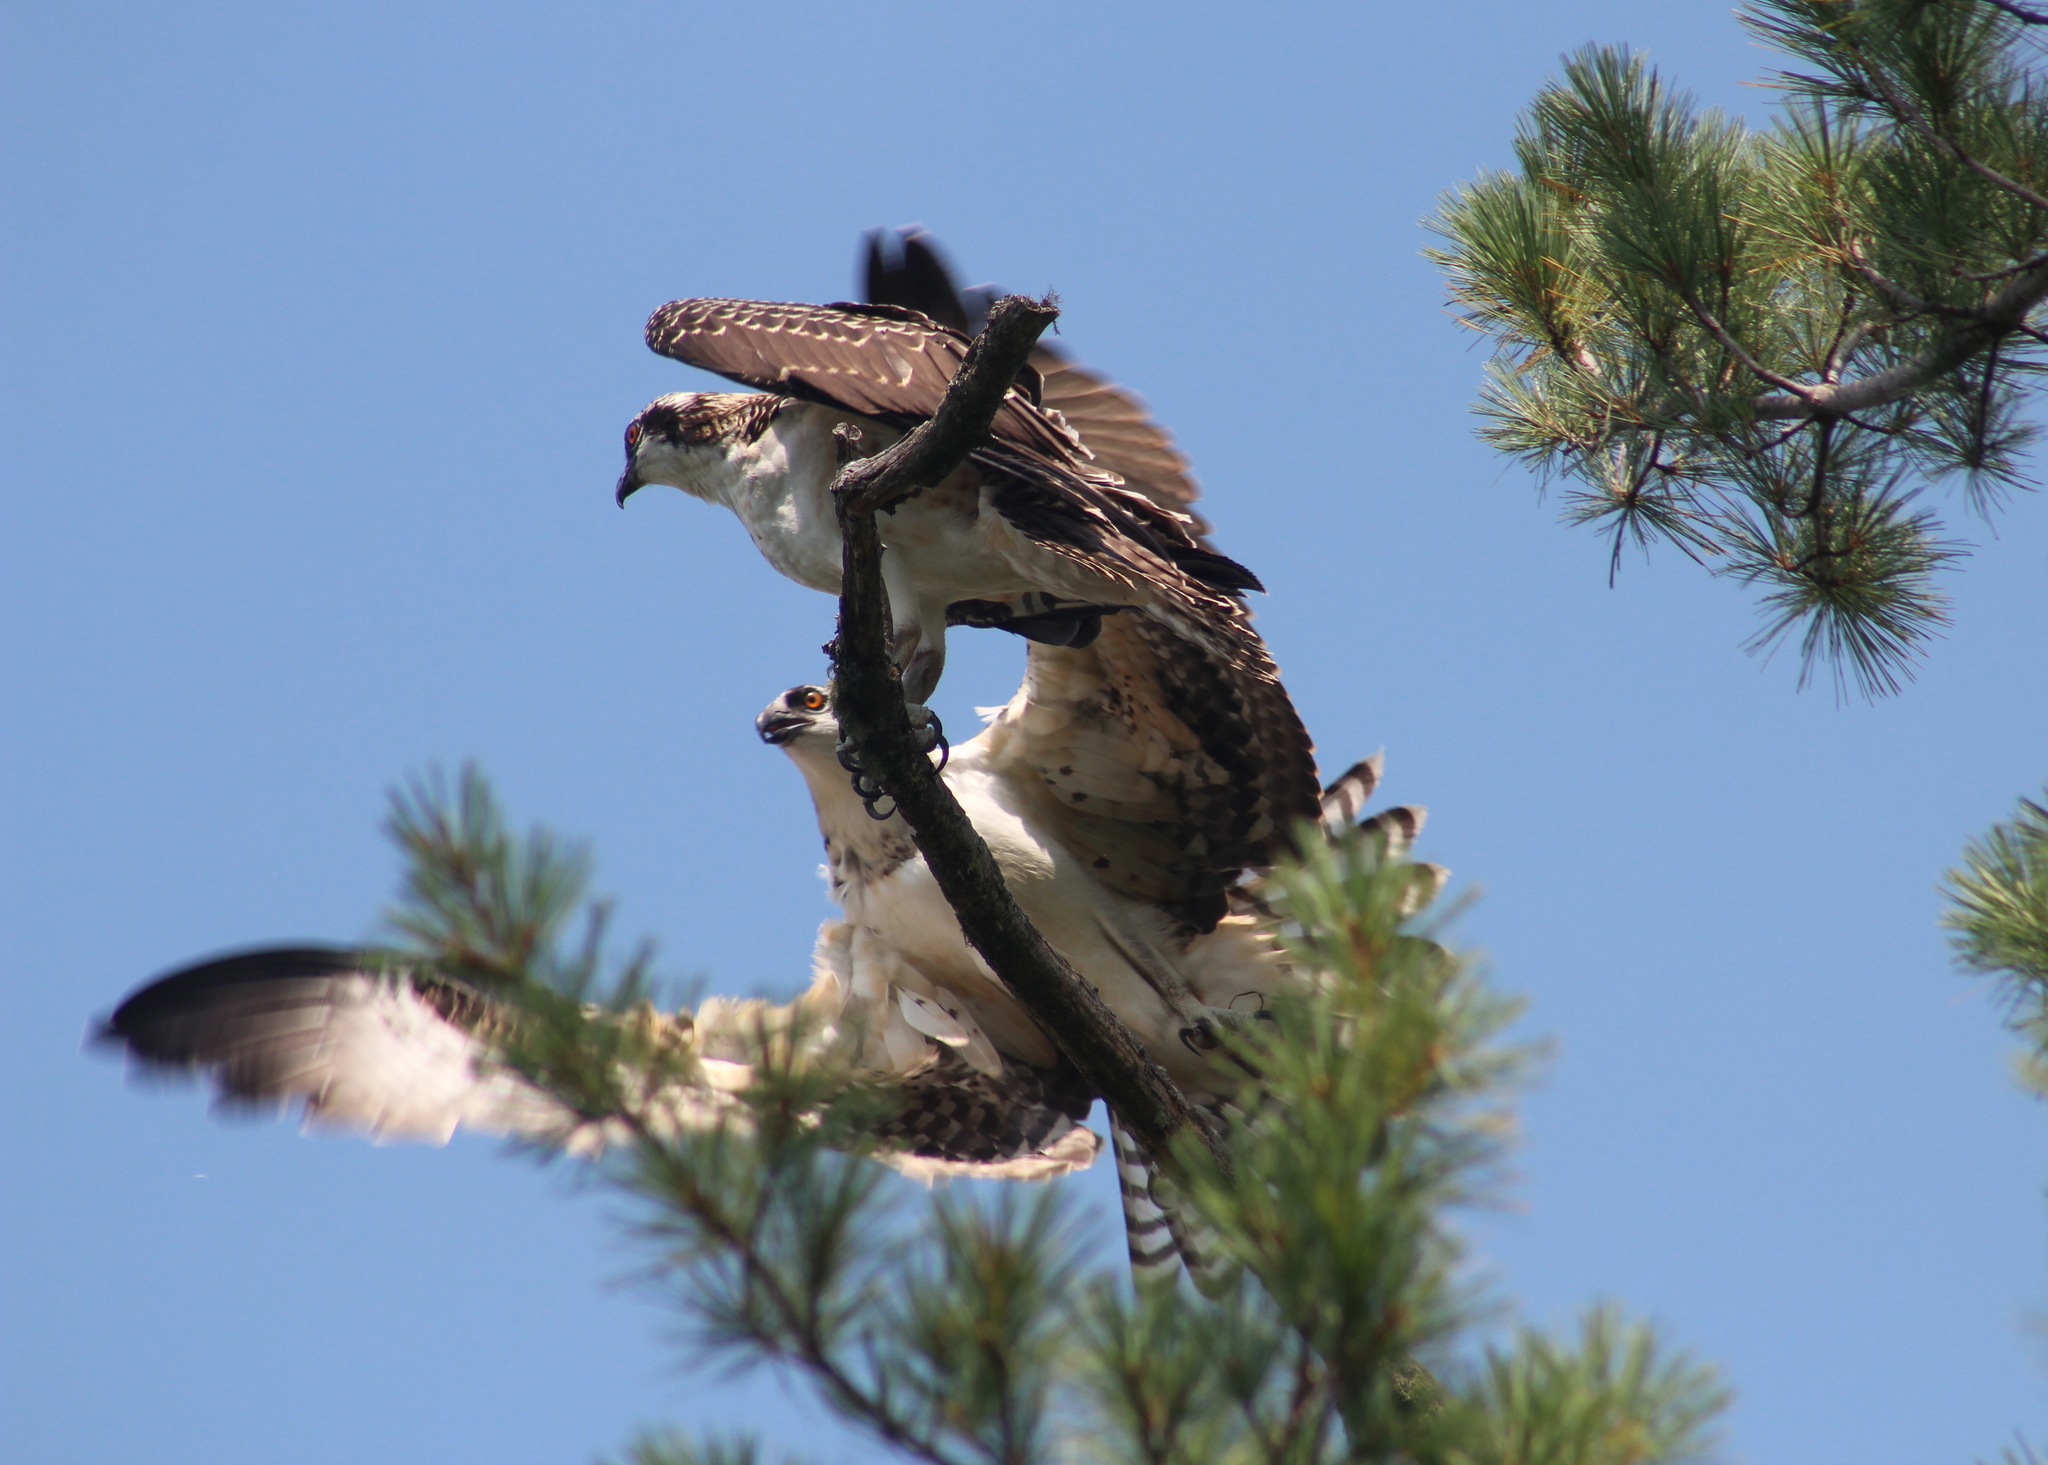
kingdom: Animalia
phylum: Chordata
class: Aves
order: Accipitriformes
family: Pandionidae
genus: Pandion
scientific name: Pandion haliaetus
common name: Osprey
